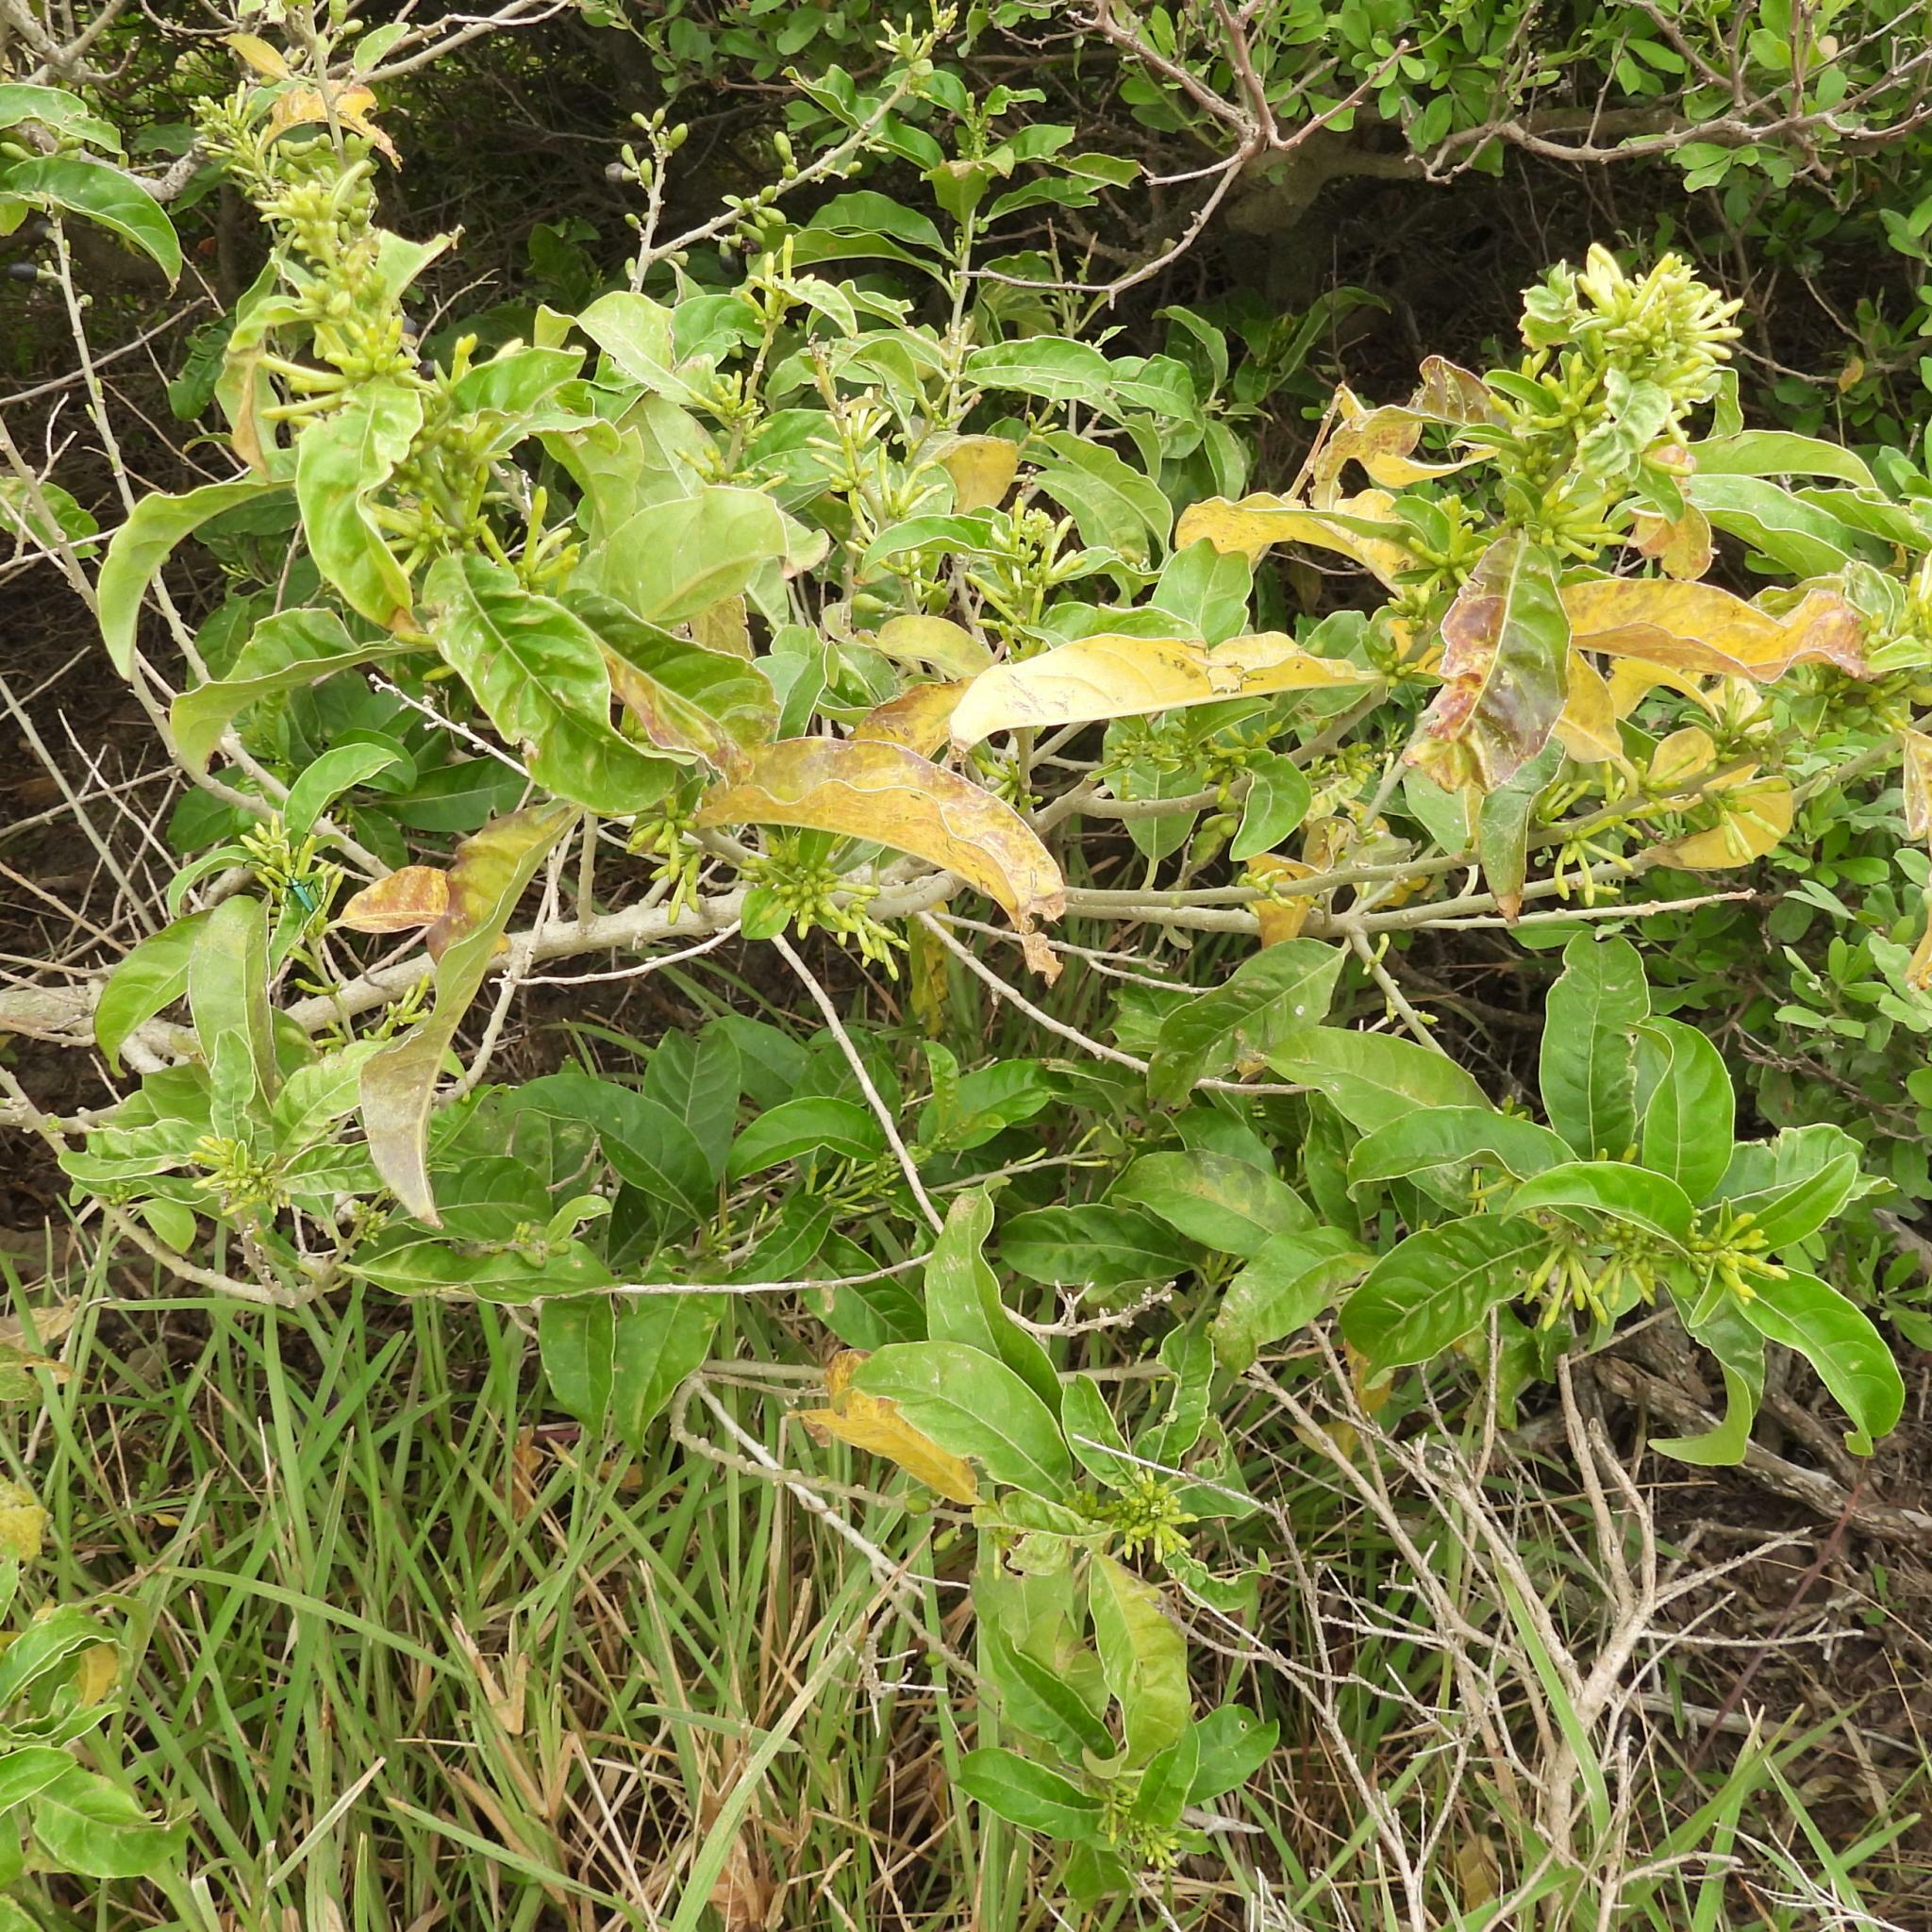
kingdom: Plantae
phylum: Tracheophyta
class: Magnoliopsida
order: Solanales
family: Solanaceae
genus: Cestrum
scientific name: Cestrum laevigatum
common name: Inkberry
